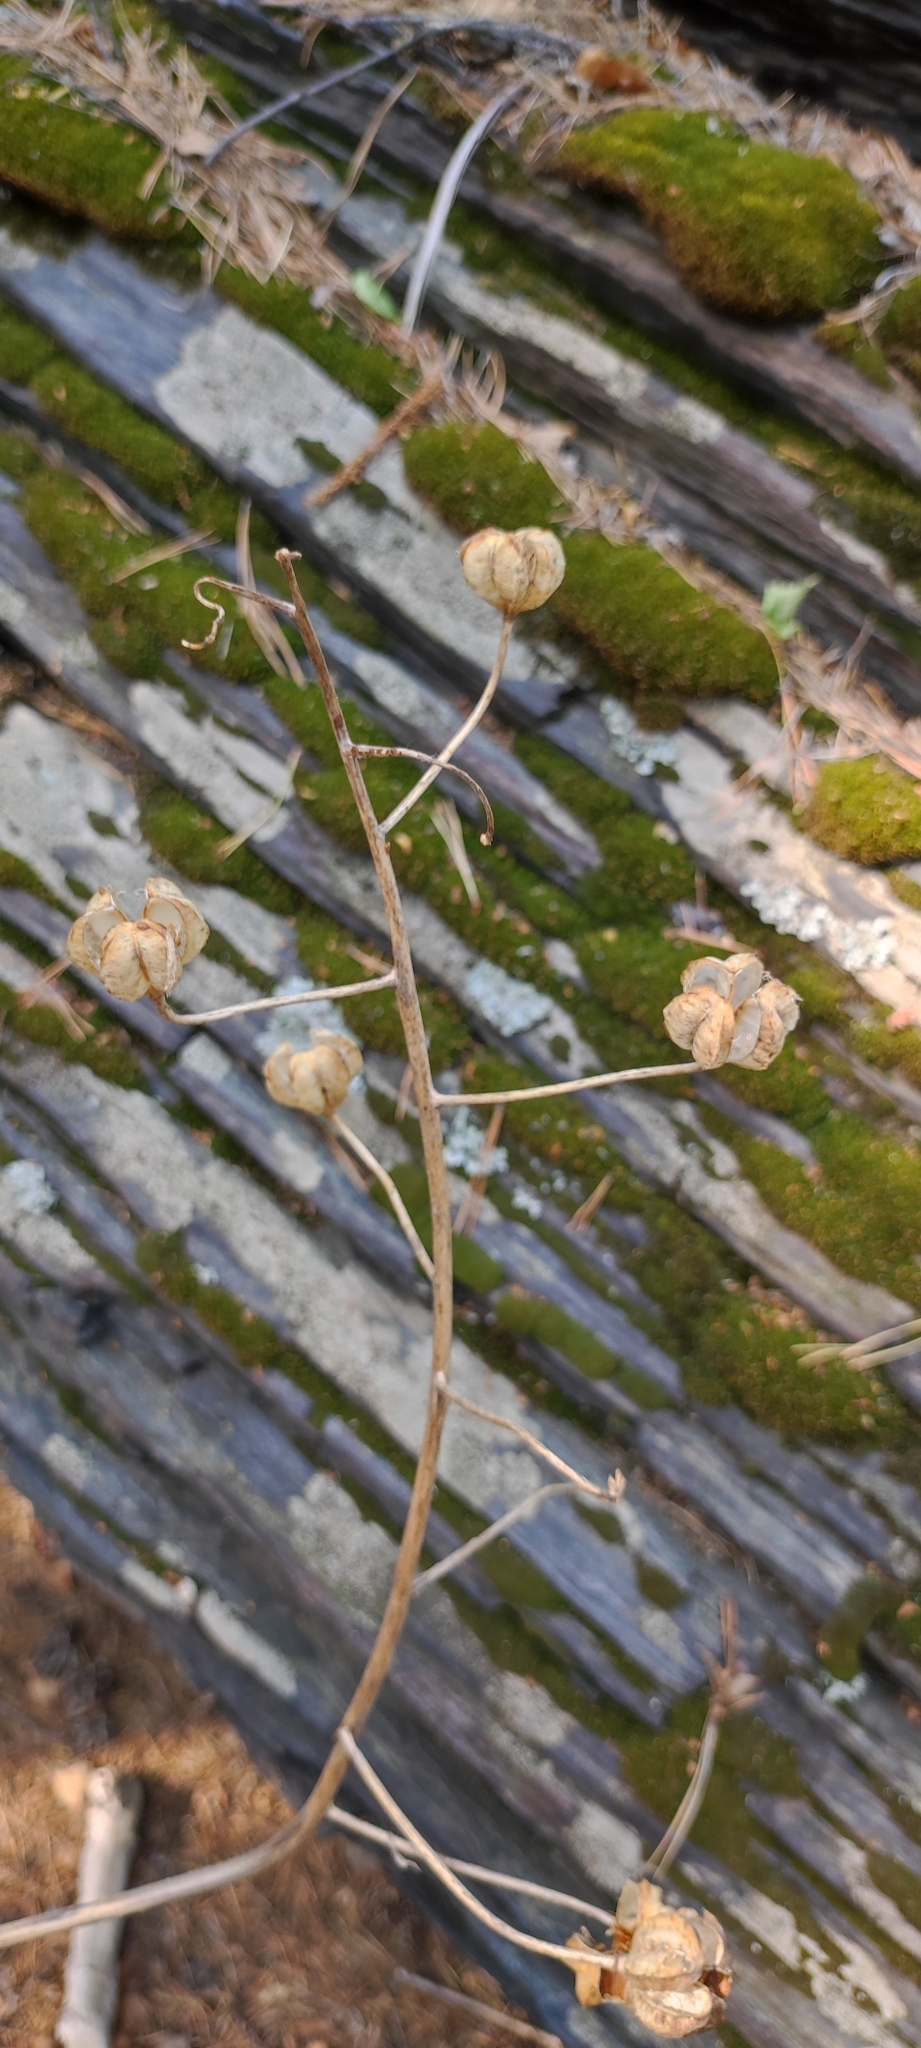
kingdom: Plantae
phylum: Tracheophyta
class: Liliopsida
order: Liliales
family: Liliaceae
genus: Lilium
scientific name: Lilium martagon
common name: Martagon lily
